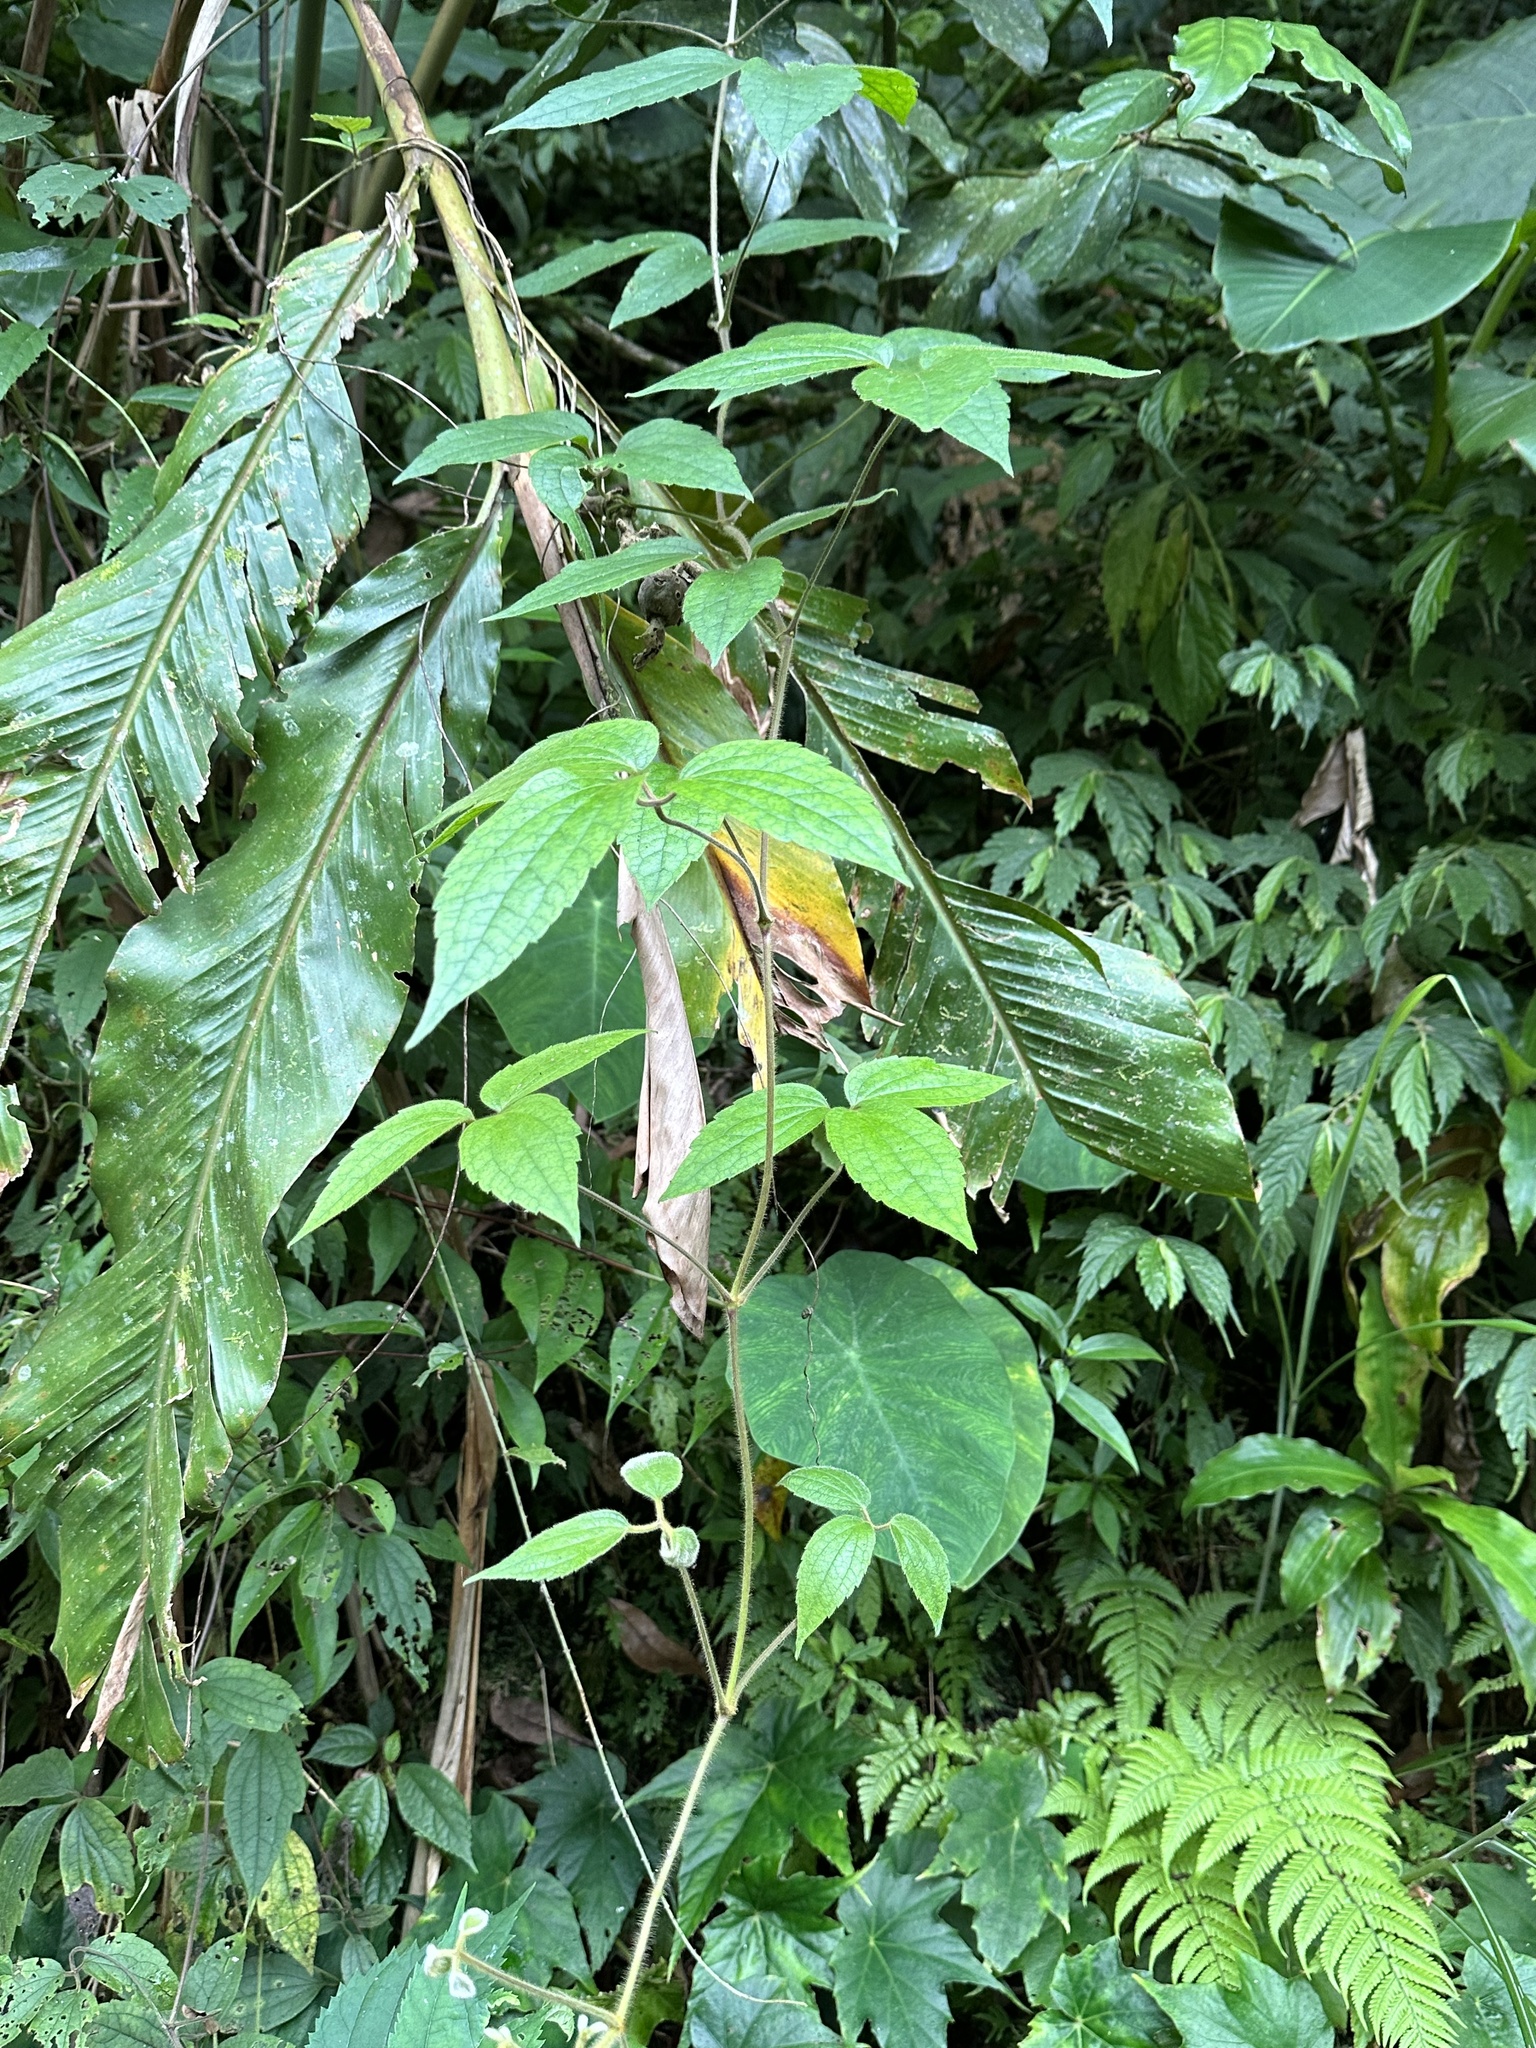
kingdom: Plantae
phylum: Tracheophyta
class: Magnoliopsida
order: Ranunculales
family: Ranunculaceae
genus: Clematis
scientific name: Clematis leschenaultiana
